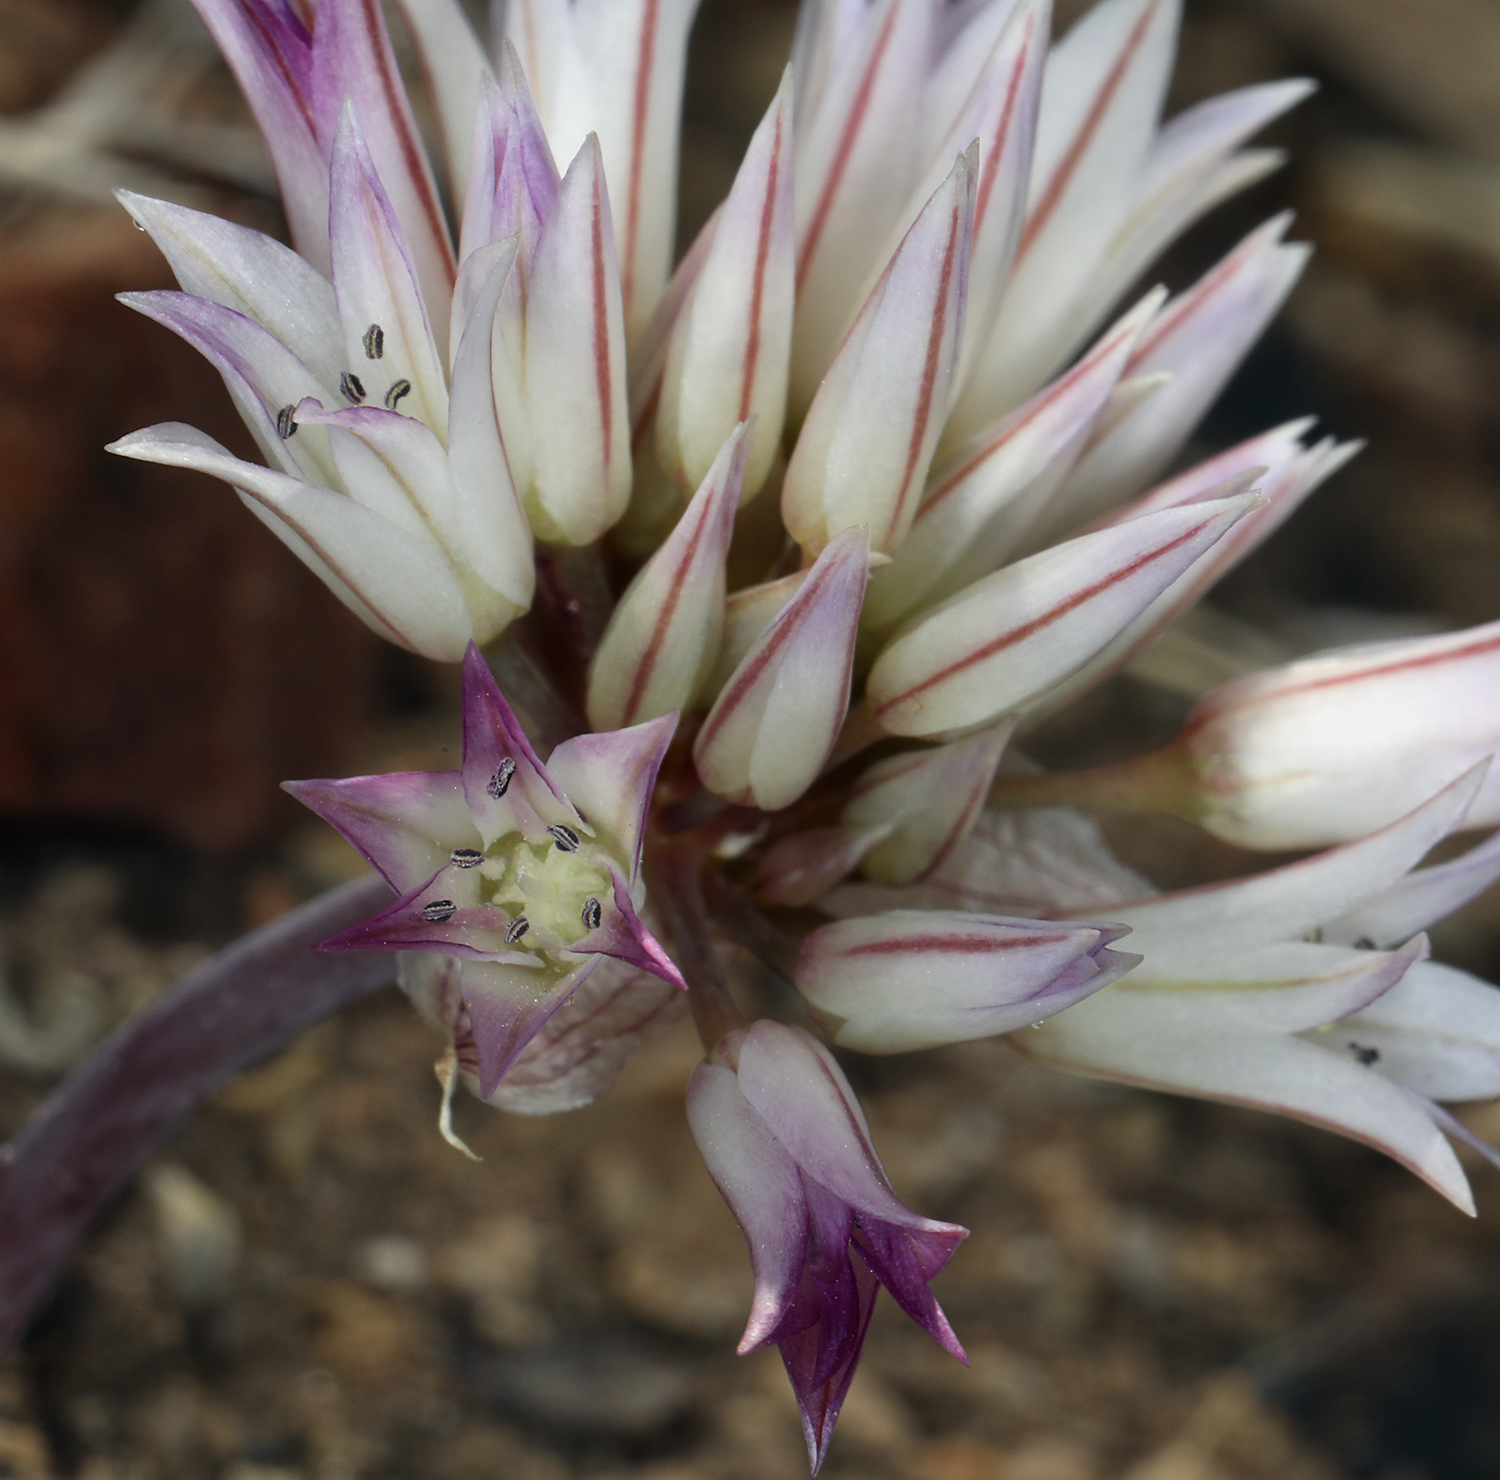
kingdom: Plantae
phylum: Tracheophyta
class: Liliopsida
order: Asparagales
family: Amaryllidaceae
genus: Allium
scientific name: Allium atrorubens
